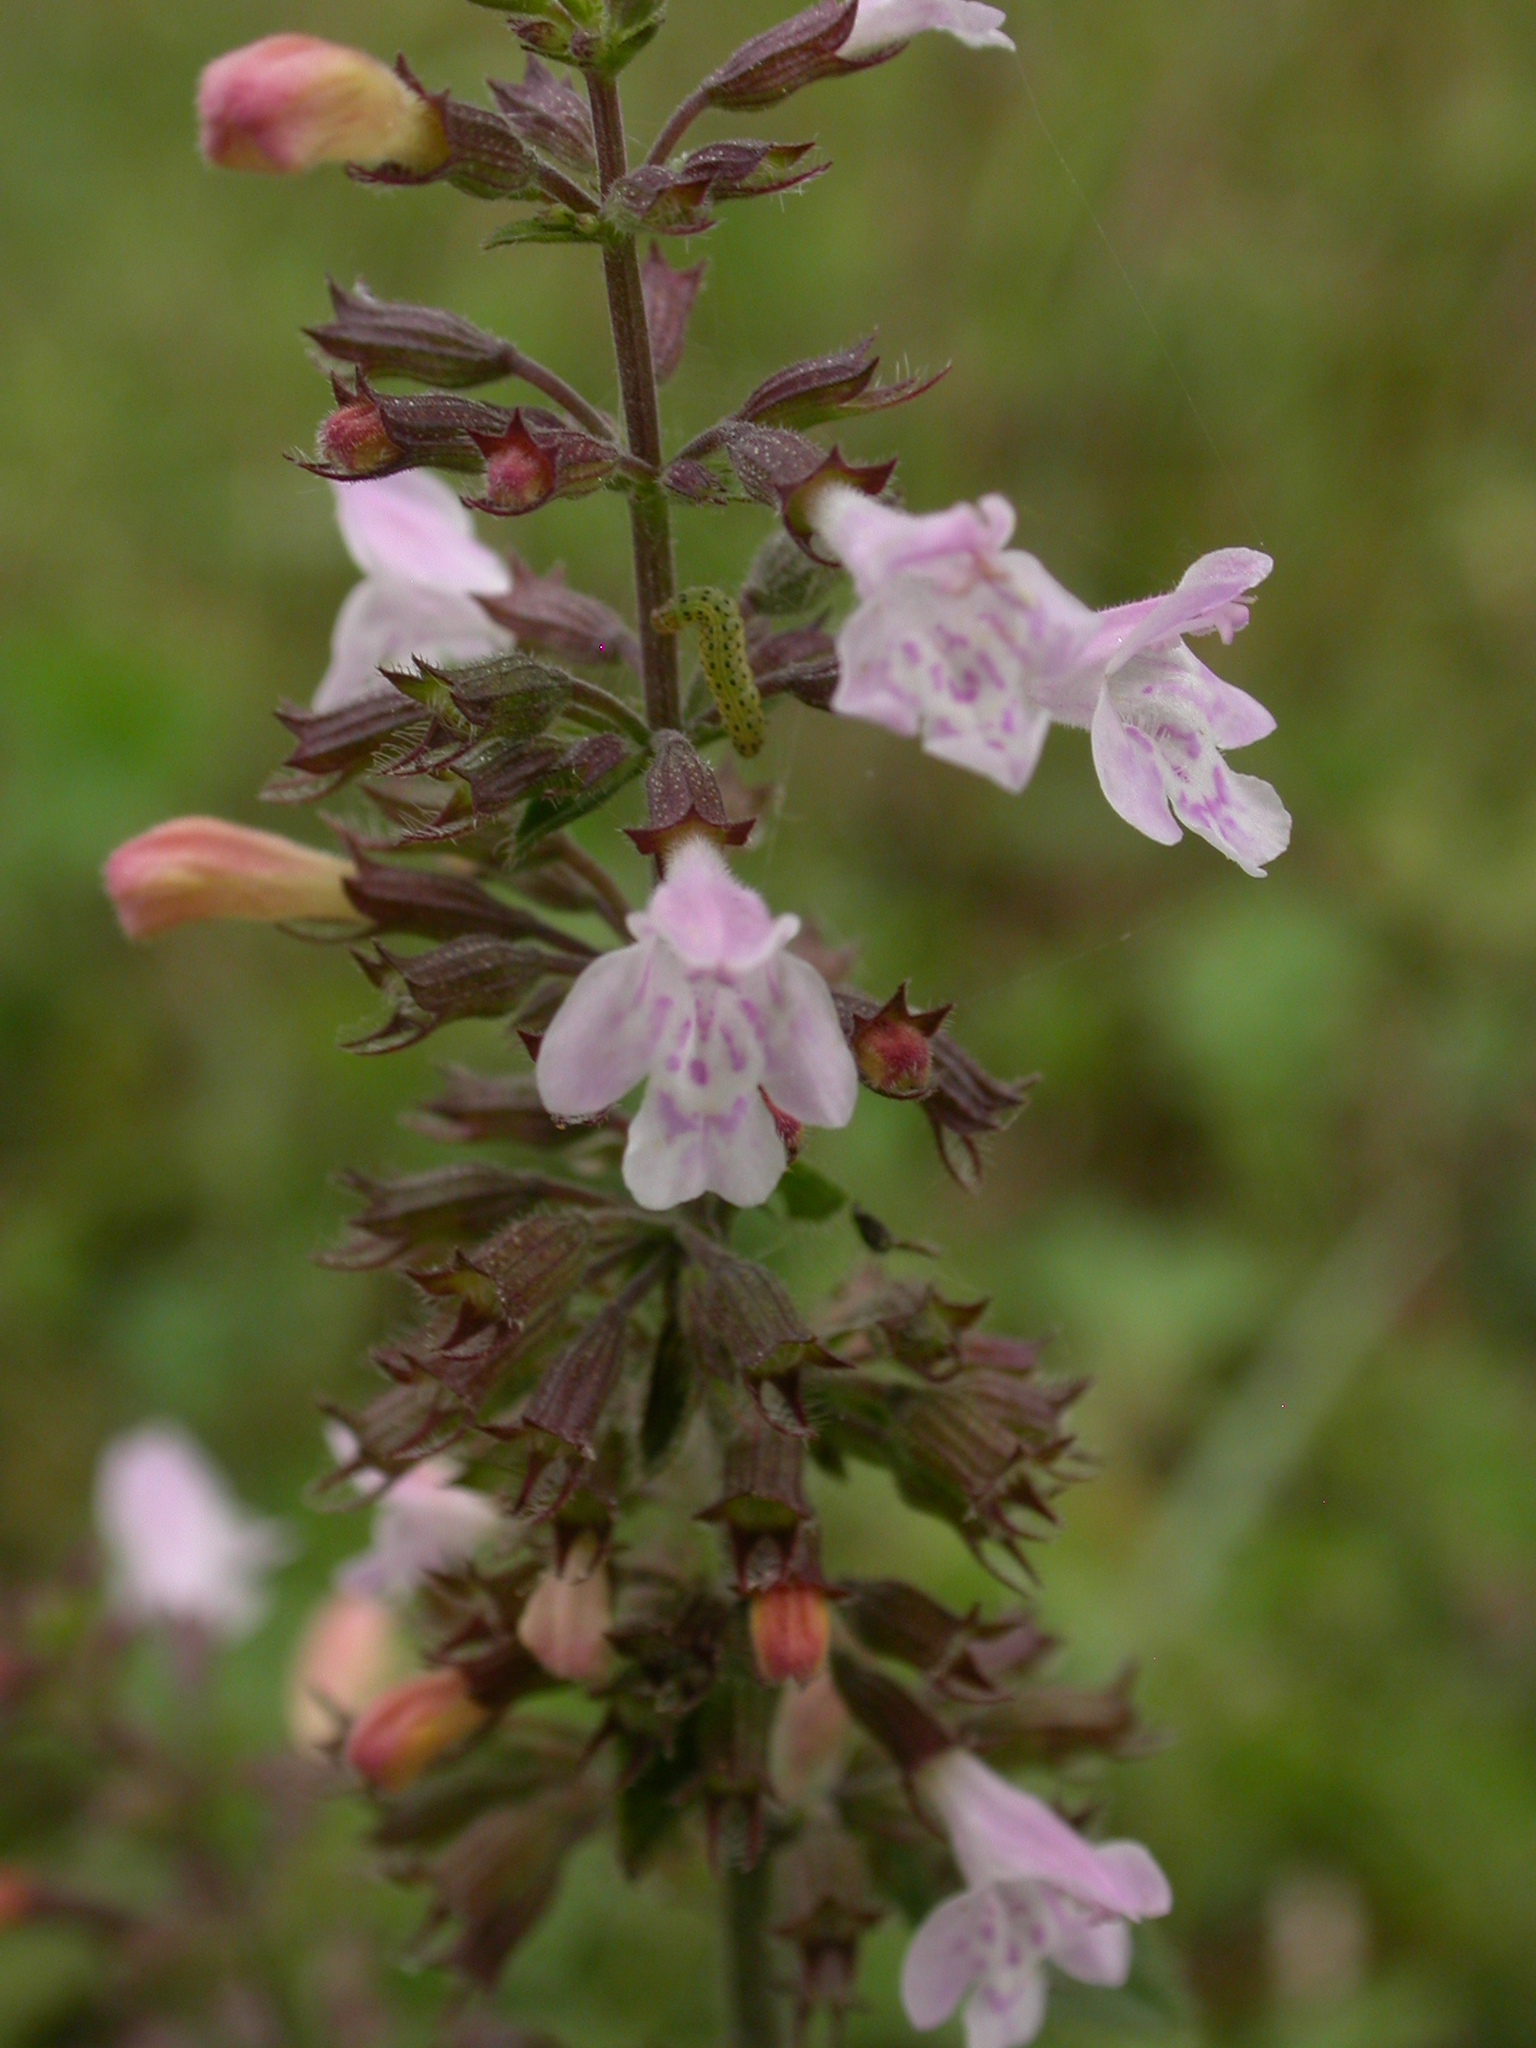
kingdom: Plantae
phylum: Tracheophyta
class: Magnoliopsida
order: Lamiales
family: Lamiaceae
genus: Clinopodium
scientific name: Clinopodium menthifolium
